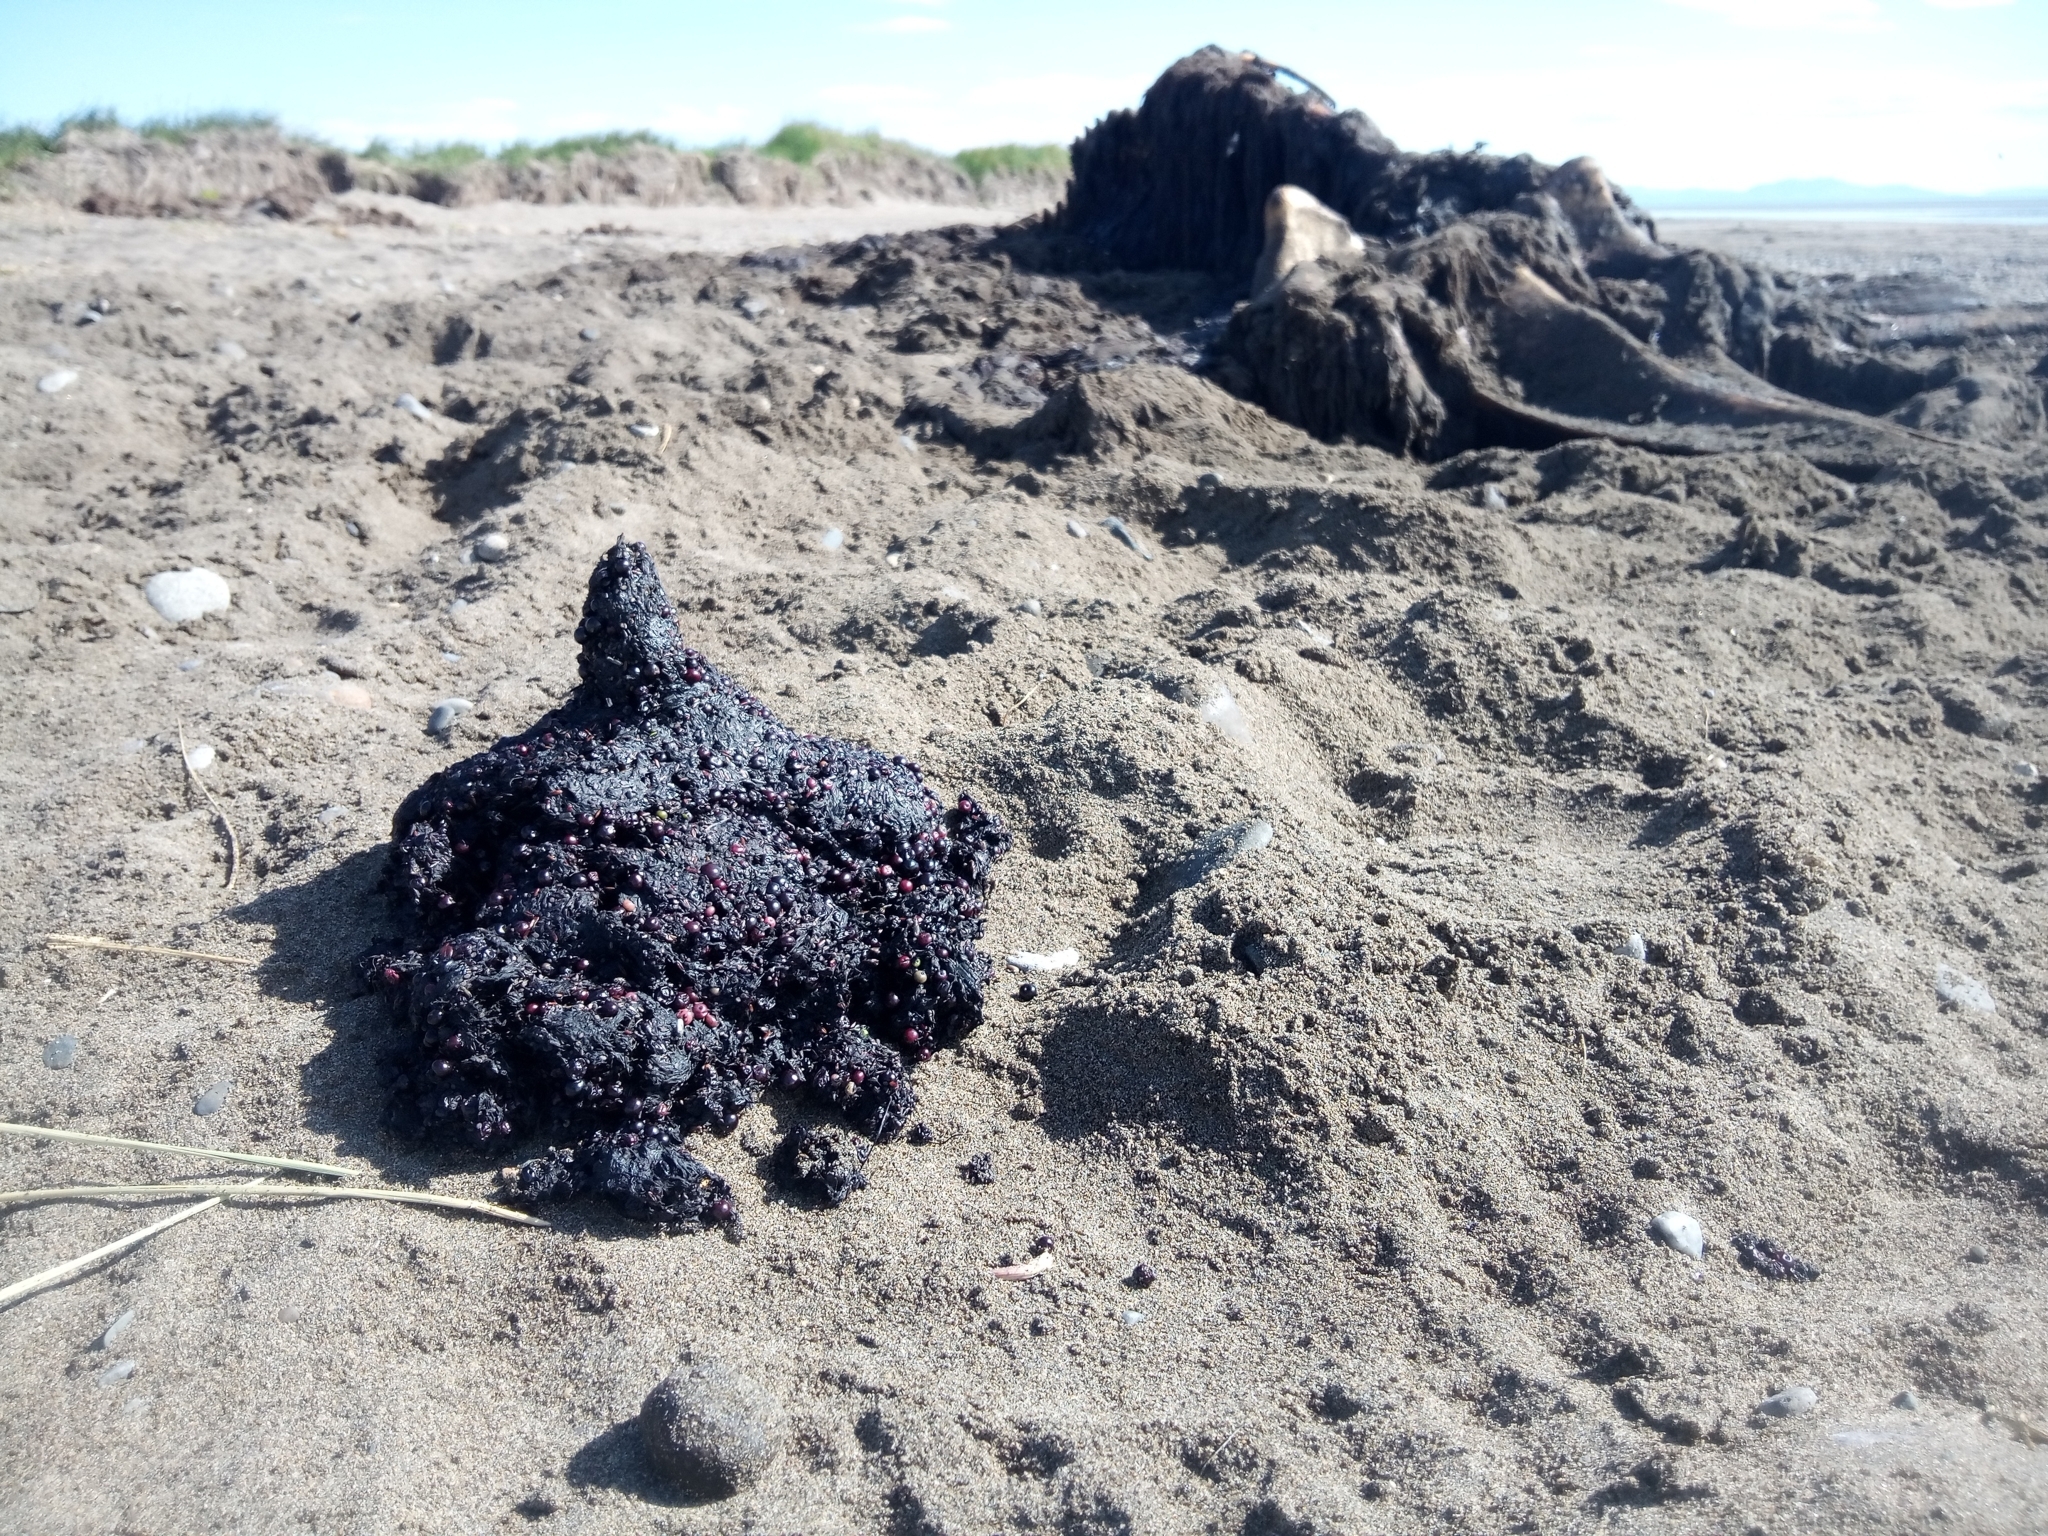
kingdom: Animalia
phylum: Chordata
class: Mammalia
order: Carnivora
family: Ursidae
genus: Ursus
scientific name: Ursus arctos
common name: Brown bear
